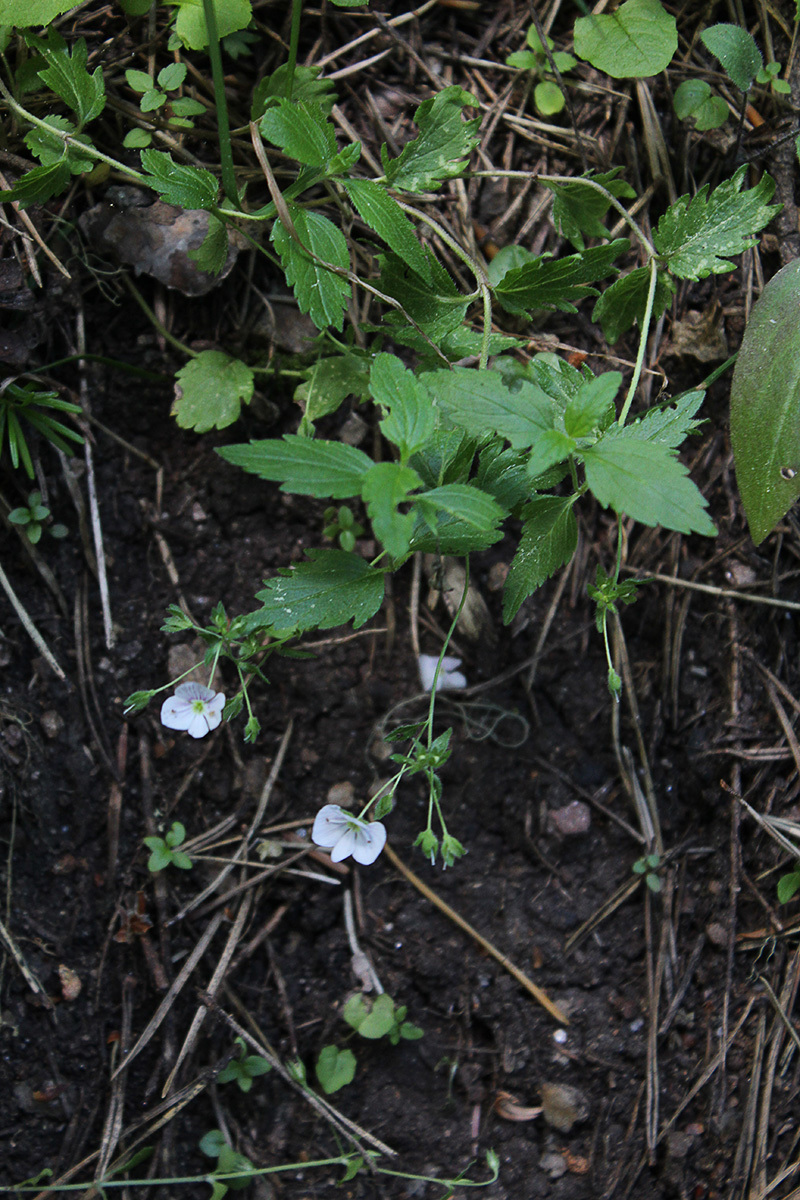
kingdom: Plantae
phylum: Tracheophyta
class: Magnoliopsida
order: Lamiales
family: Plantaginaceae
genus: Veronica
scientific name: Veronica peduncularis
